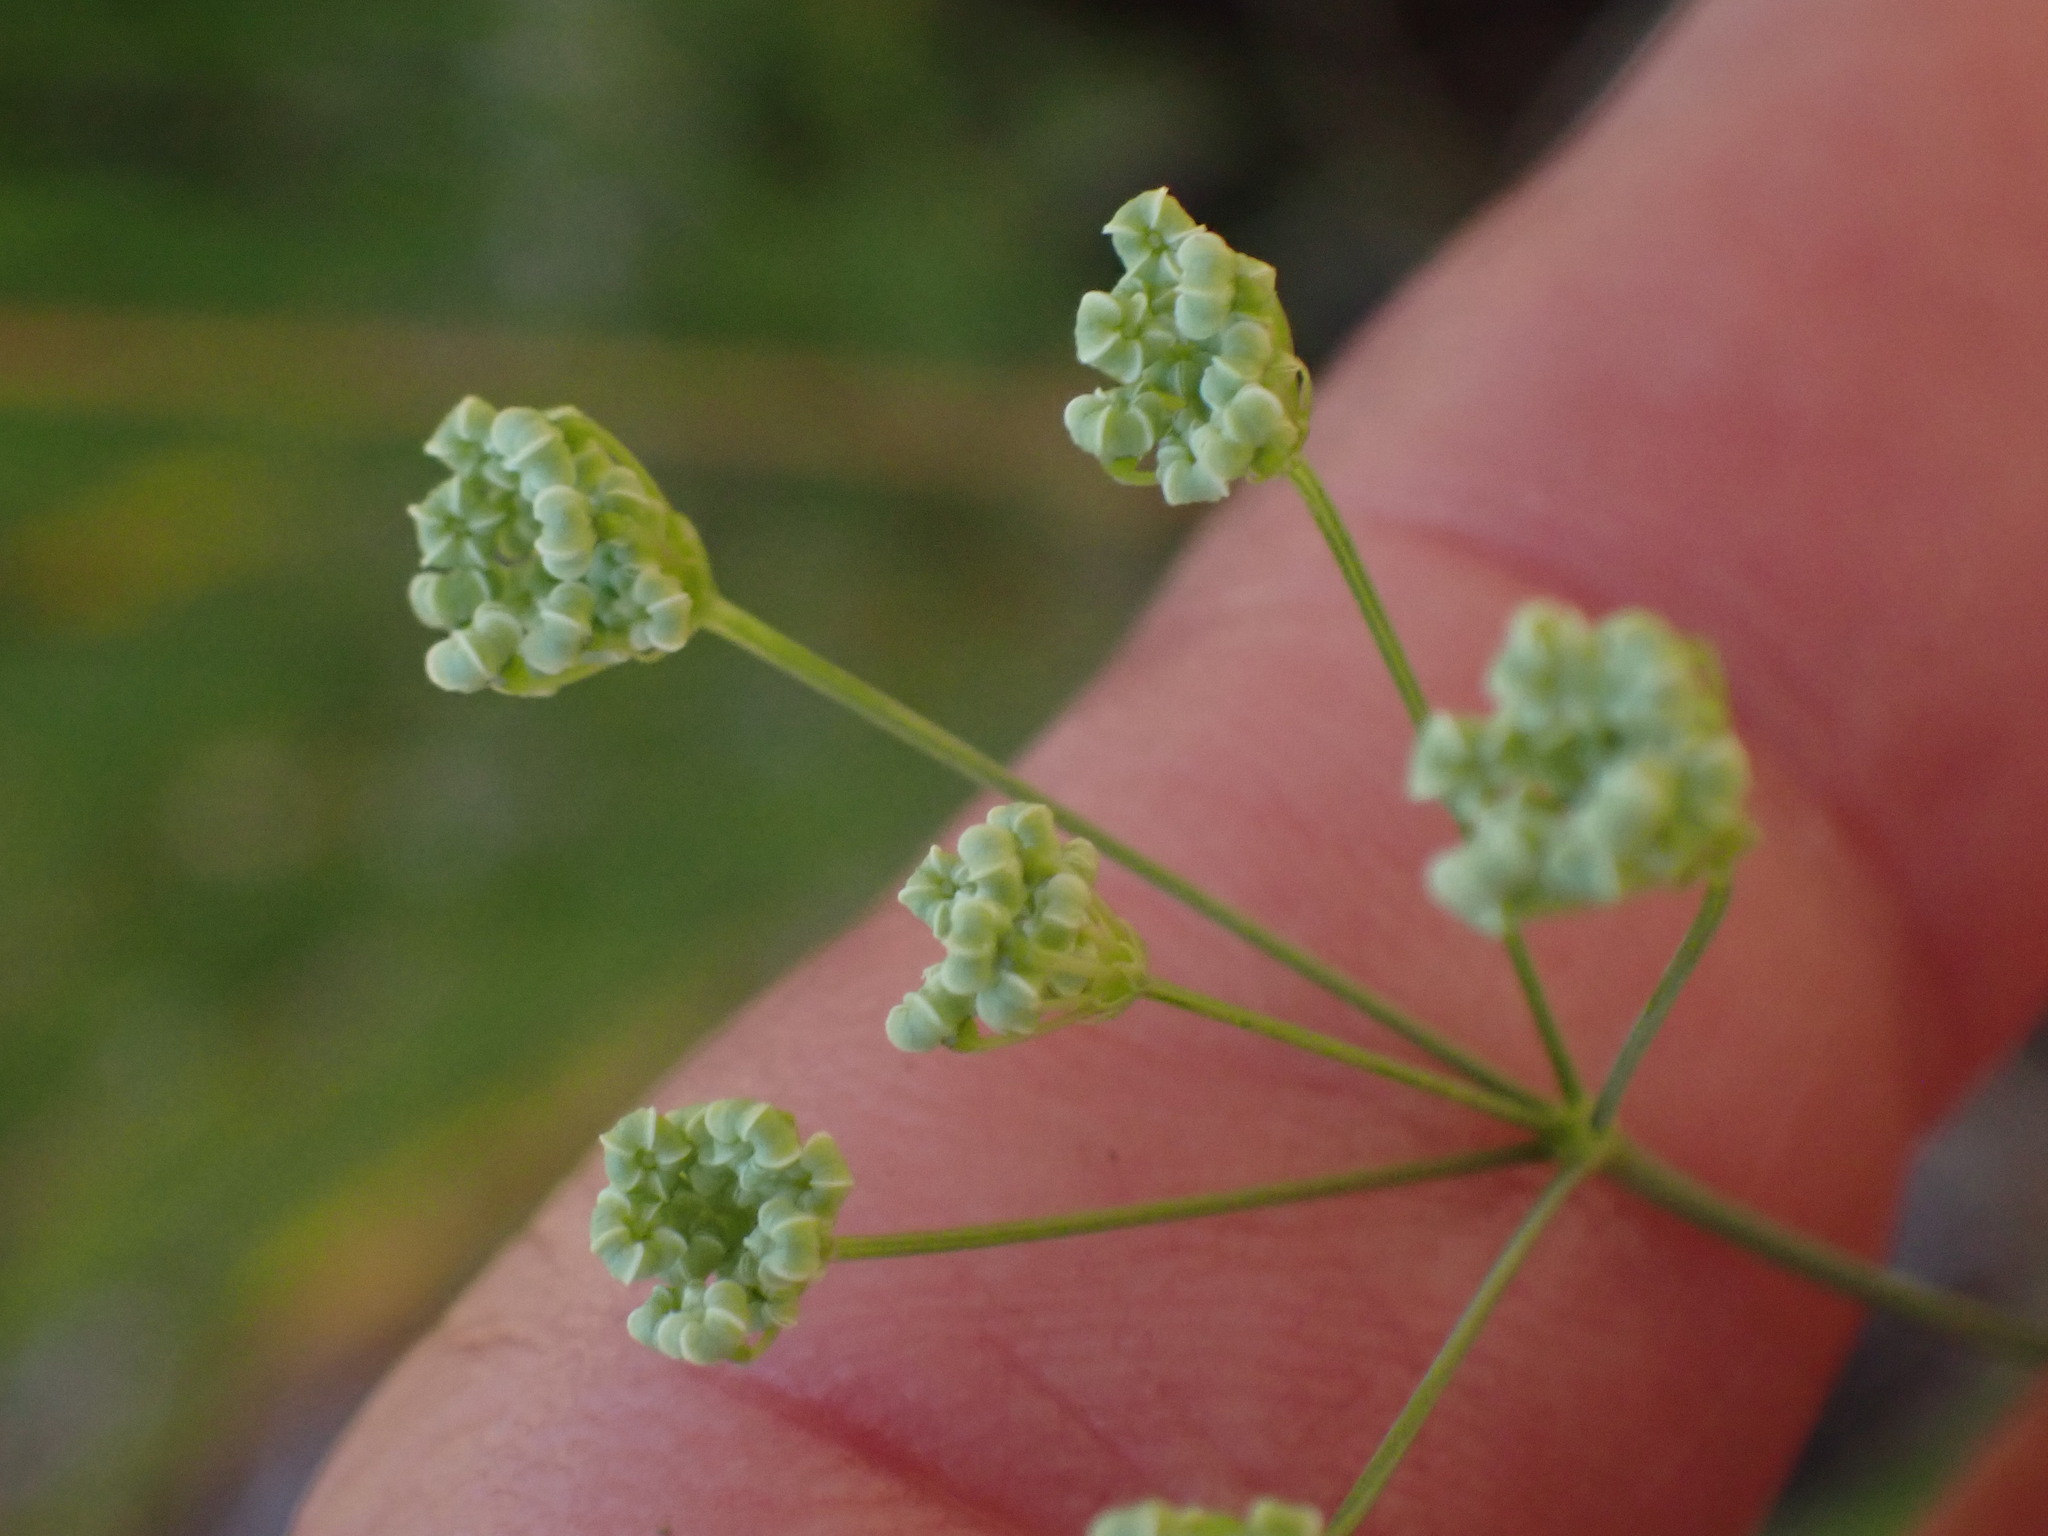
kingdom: Plantae
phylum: Tracheophyta
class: Magnoliopsida
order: Apiales
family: Apiaceae
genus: Perideridia
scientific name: Perideridia gairdneri
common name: False caraway
